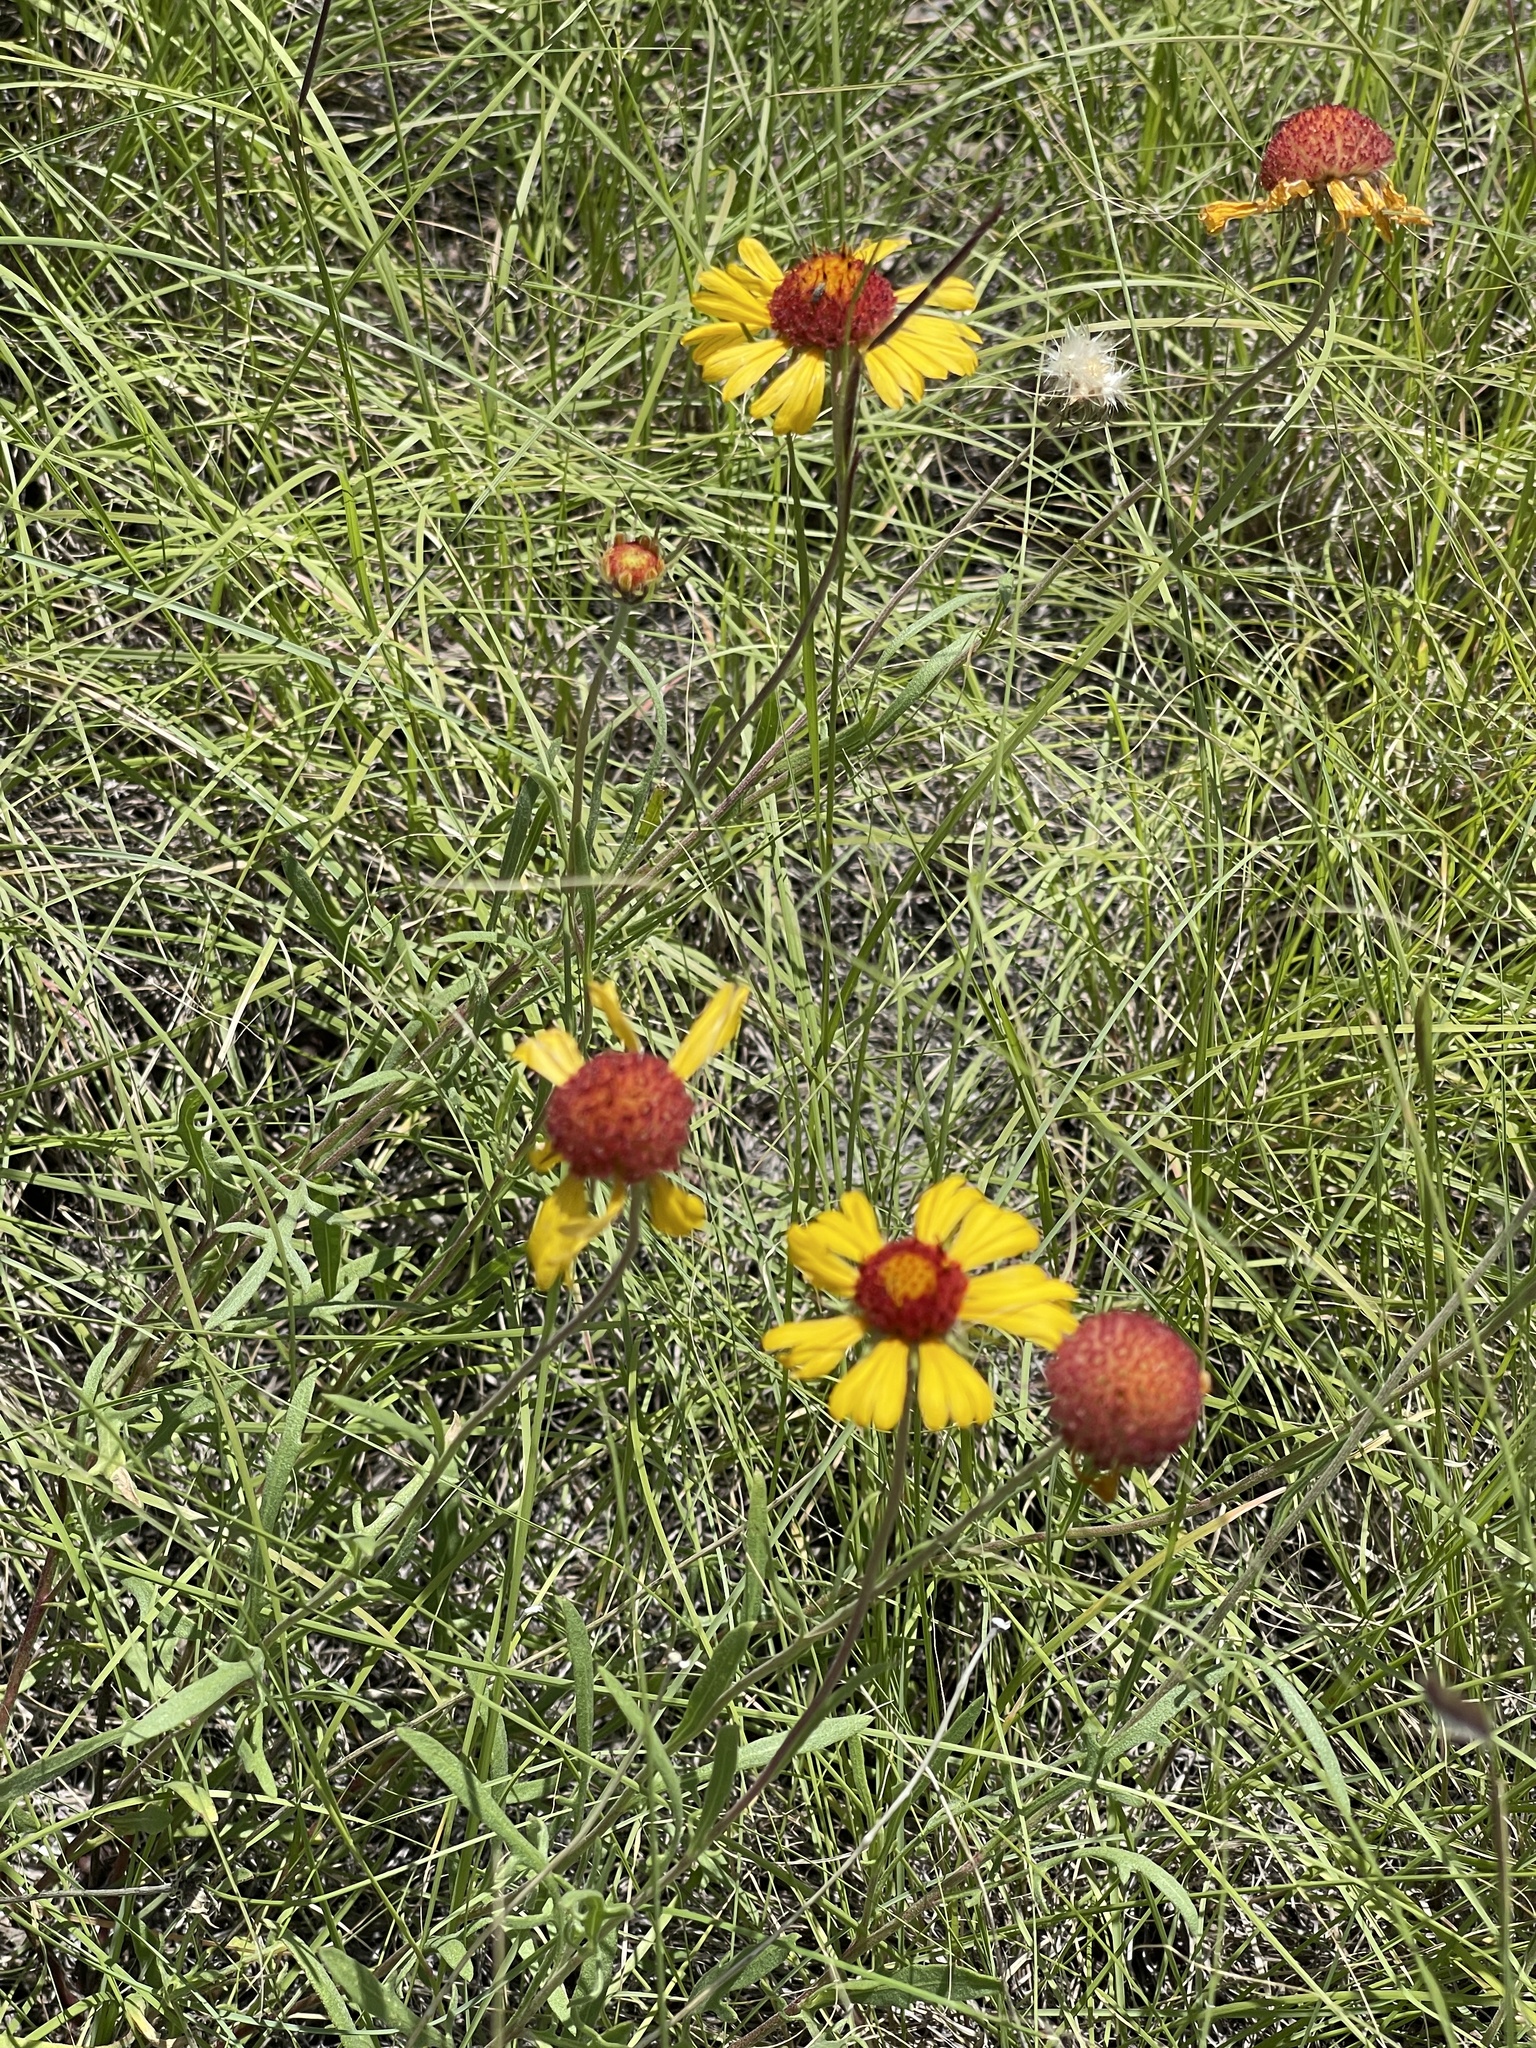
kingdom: Plantae
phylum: Tracheophyta
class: Magnoliopsida
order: Asterales
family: Asteraceae
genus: Gaillardia
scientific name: Gaillardia pinnatifida
